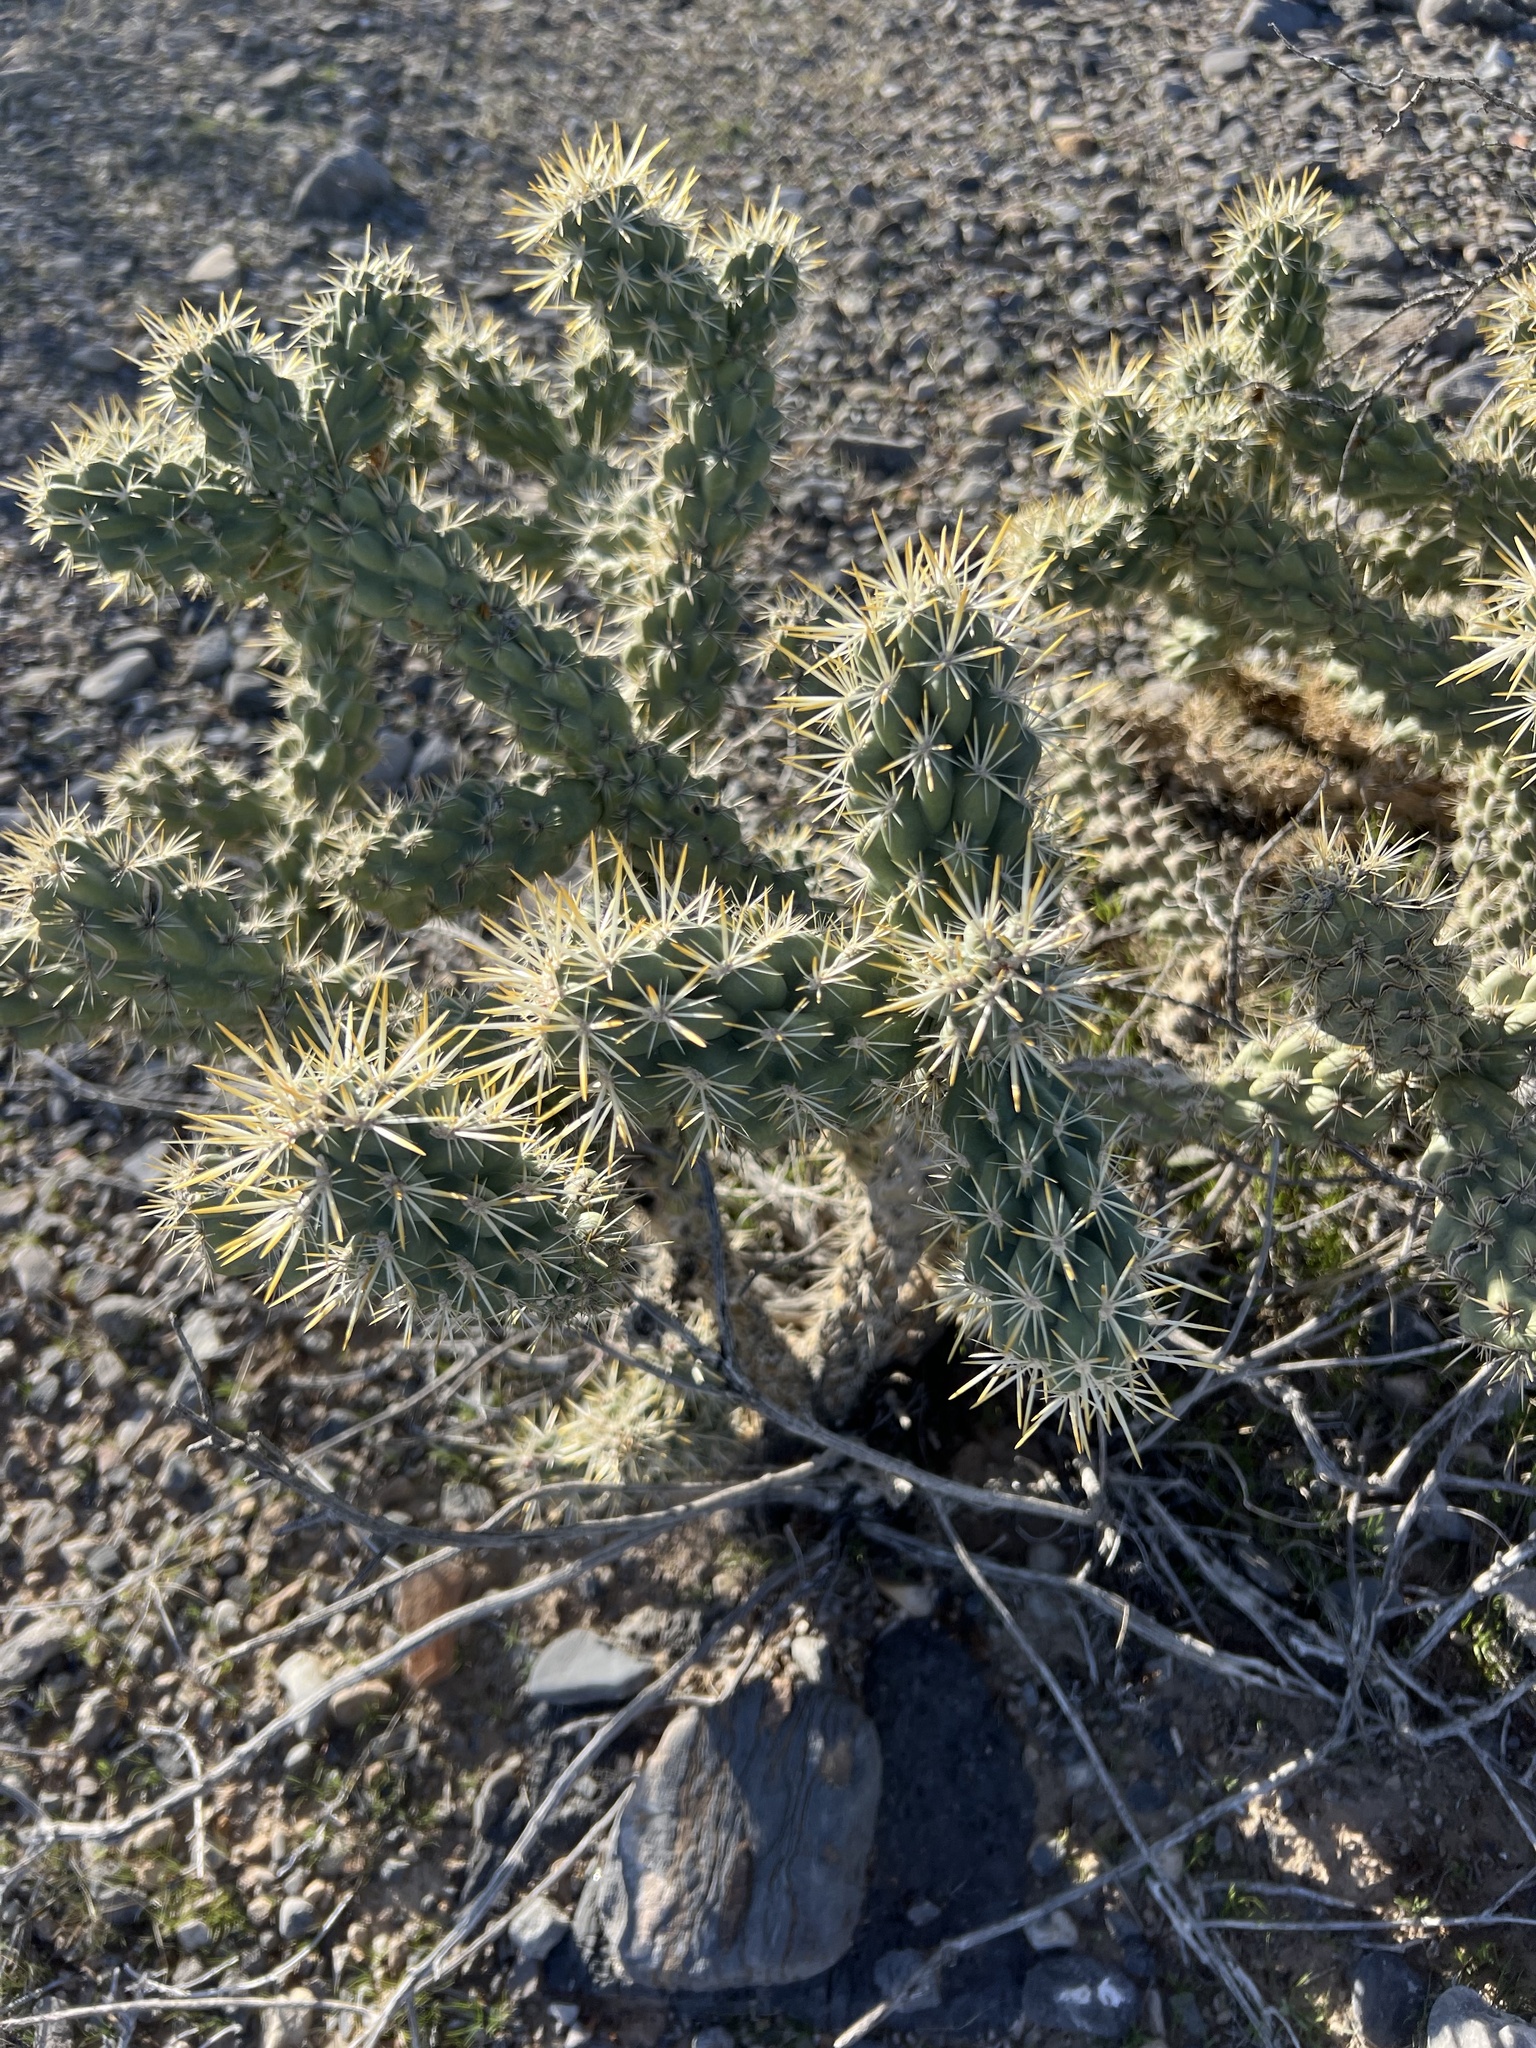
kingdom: Plantae
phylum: Tracheophyta
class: Magnoliopsida
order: Caryophyllales
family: Cactaceae
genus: Cylindropuntia
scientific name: Cylindropuntia echinocarpa
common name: Ground cholla
